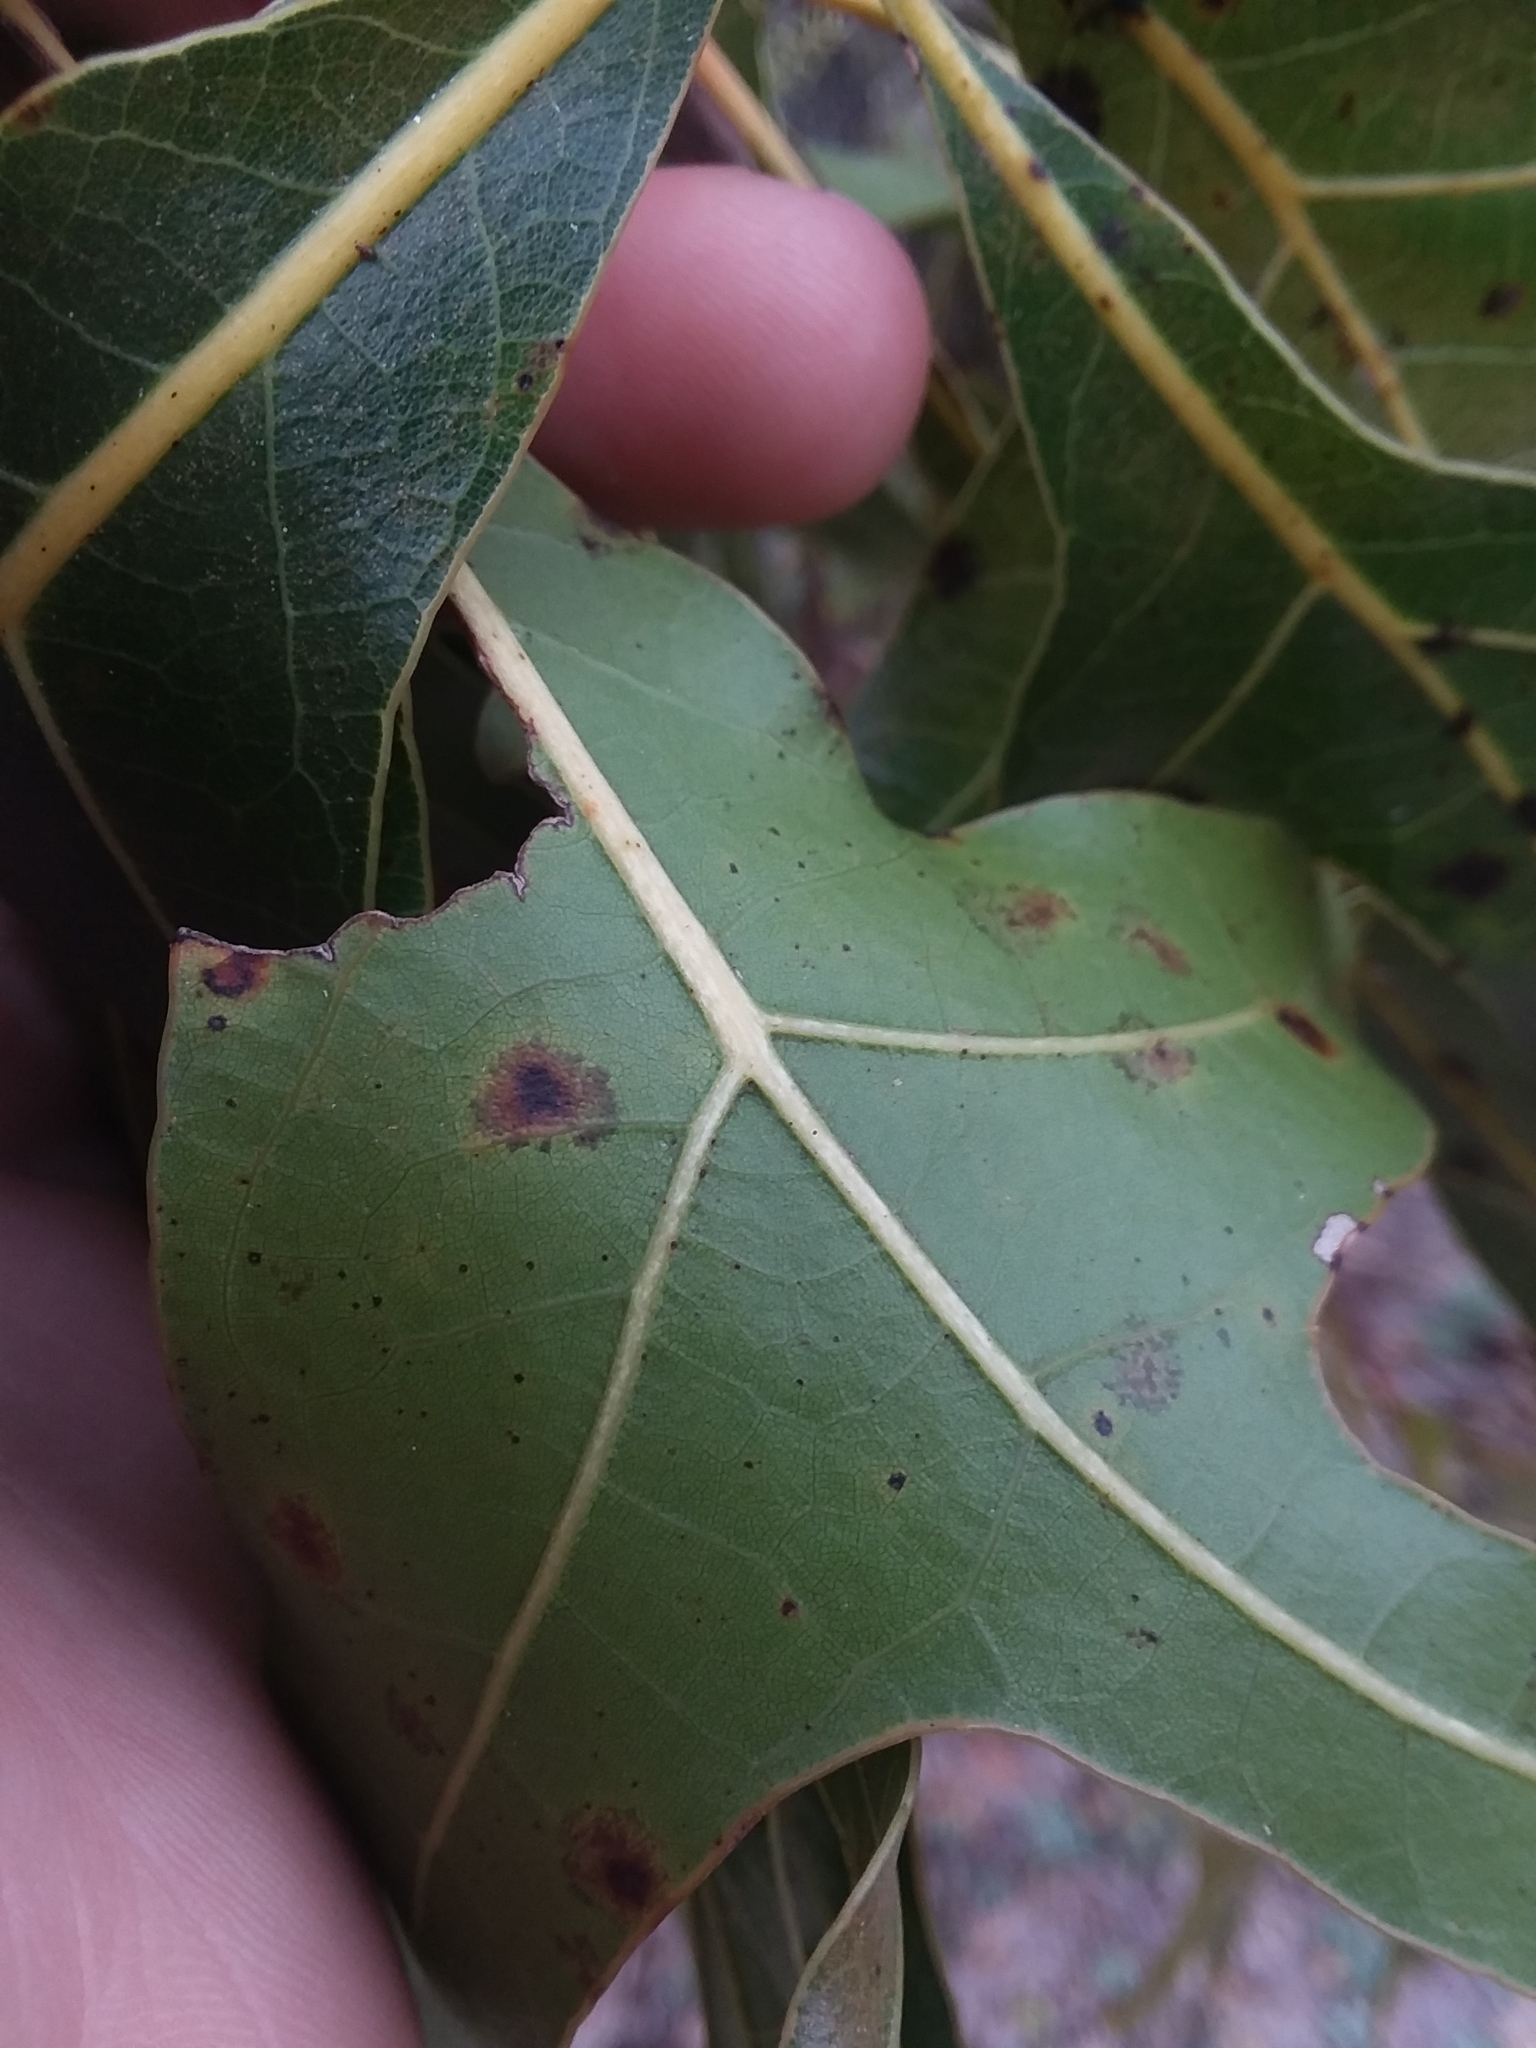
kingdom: Plantae
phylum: Tracheophyta
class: Magnoliopsida
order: Fagales
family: Fagaceae
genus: Quercus
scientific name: Quercus laevis
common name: Turkey oak
